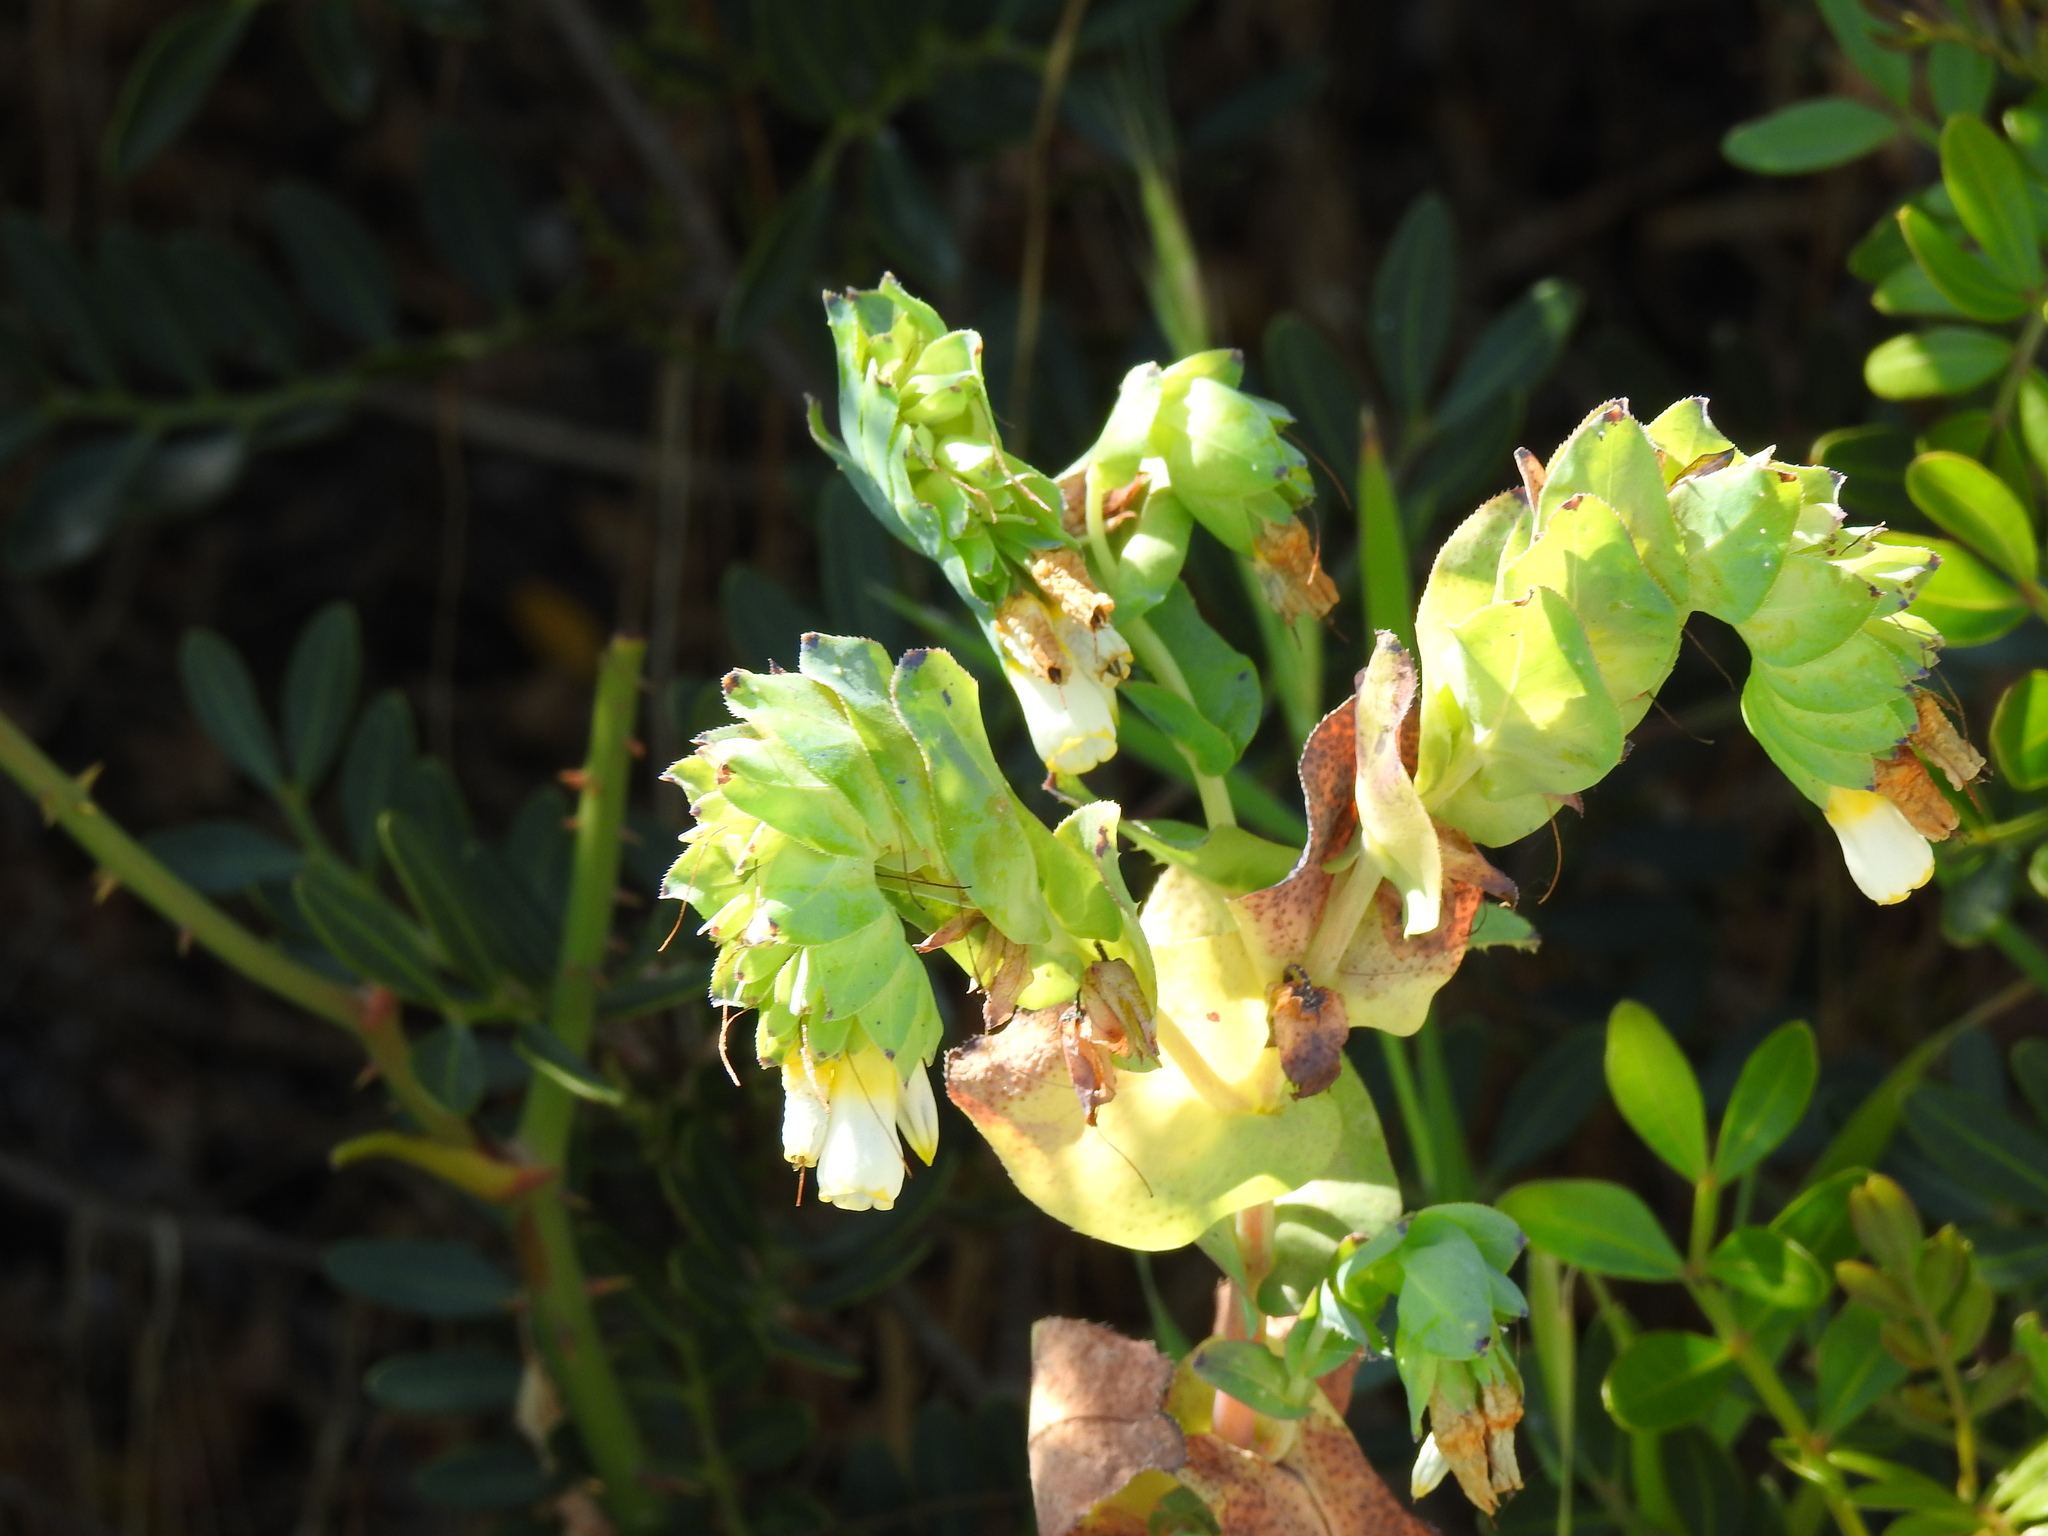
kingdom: Plantae
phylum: Tracheophyta
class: Magnoliopsida
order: Boraginales
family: Boraginaceae
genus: Cerinthe
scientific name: Cerinthe major
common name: Greater honeywort
